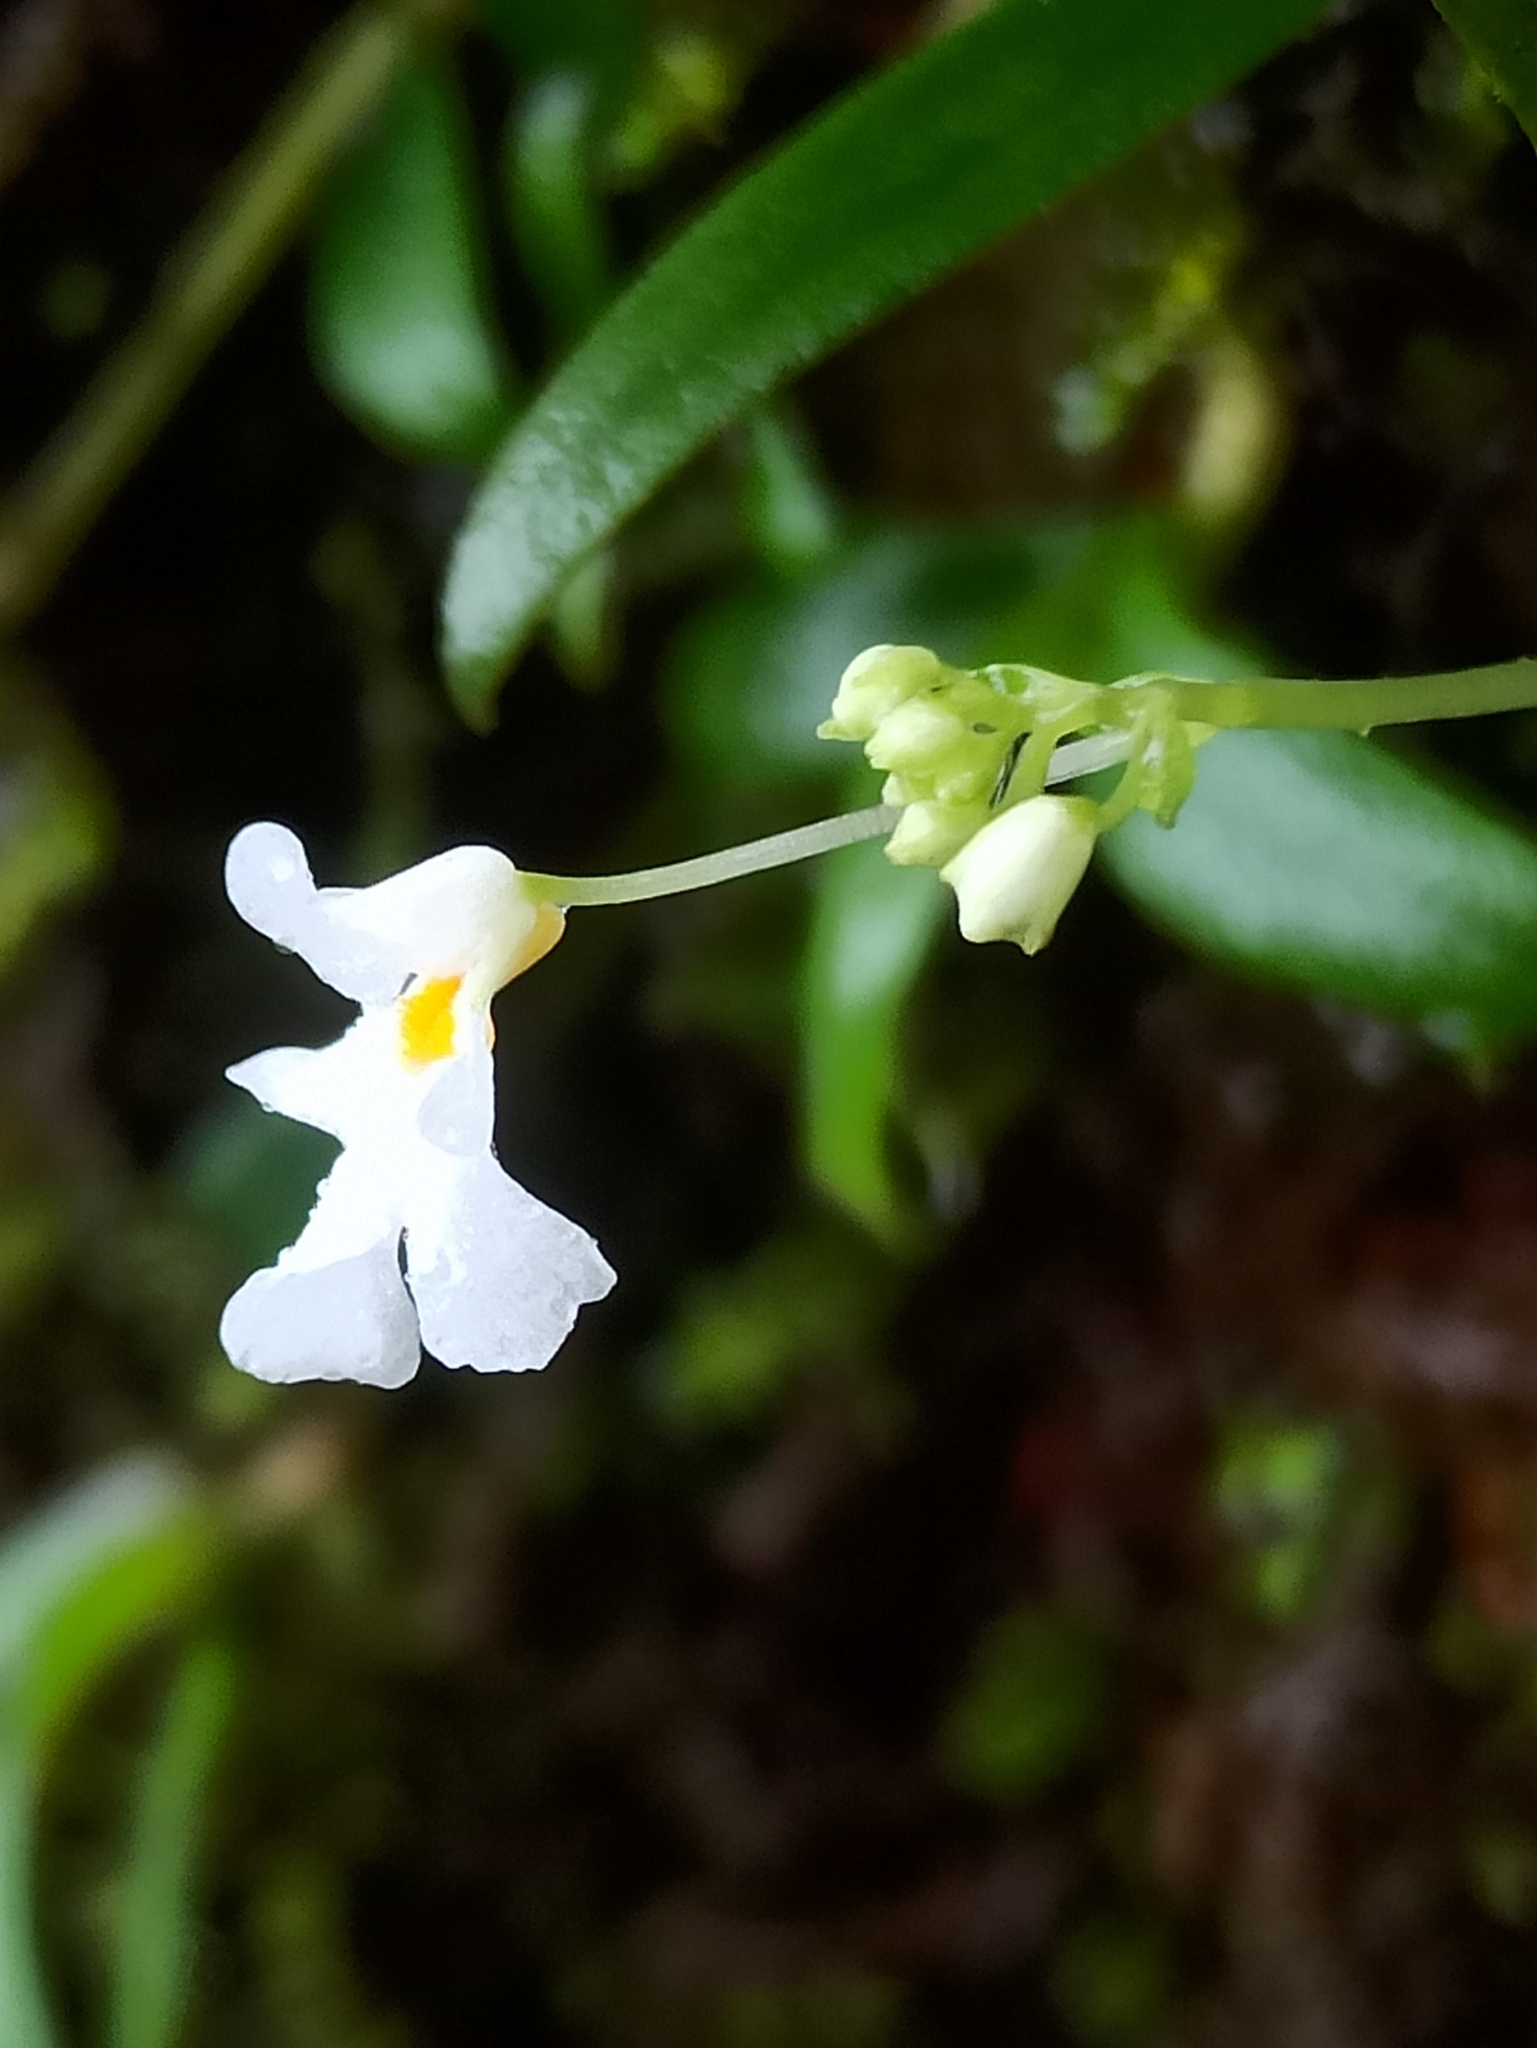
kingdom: Plantae
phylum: Tracheophyta
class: Magnoliopsida
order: Ericales
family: Balsaminaceae
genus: Impatiens
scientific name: Impatiens stocksii
